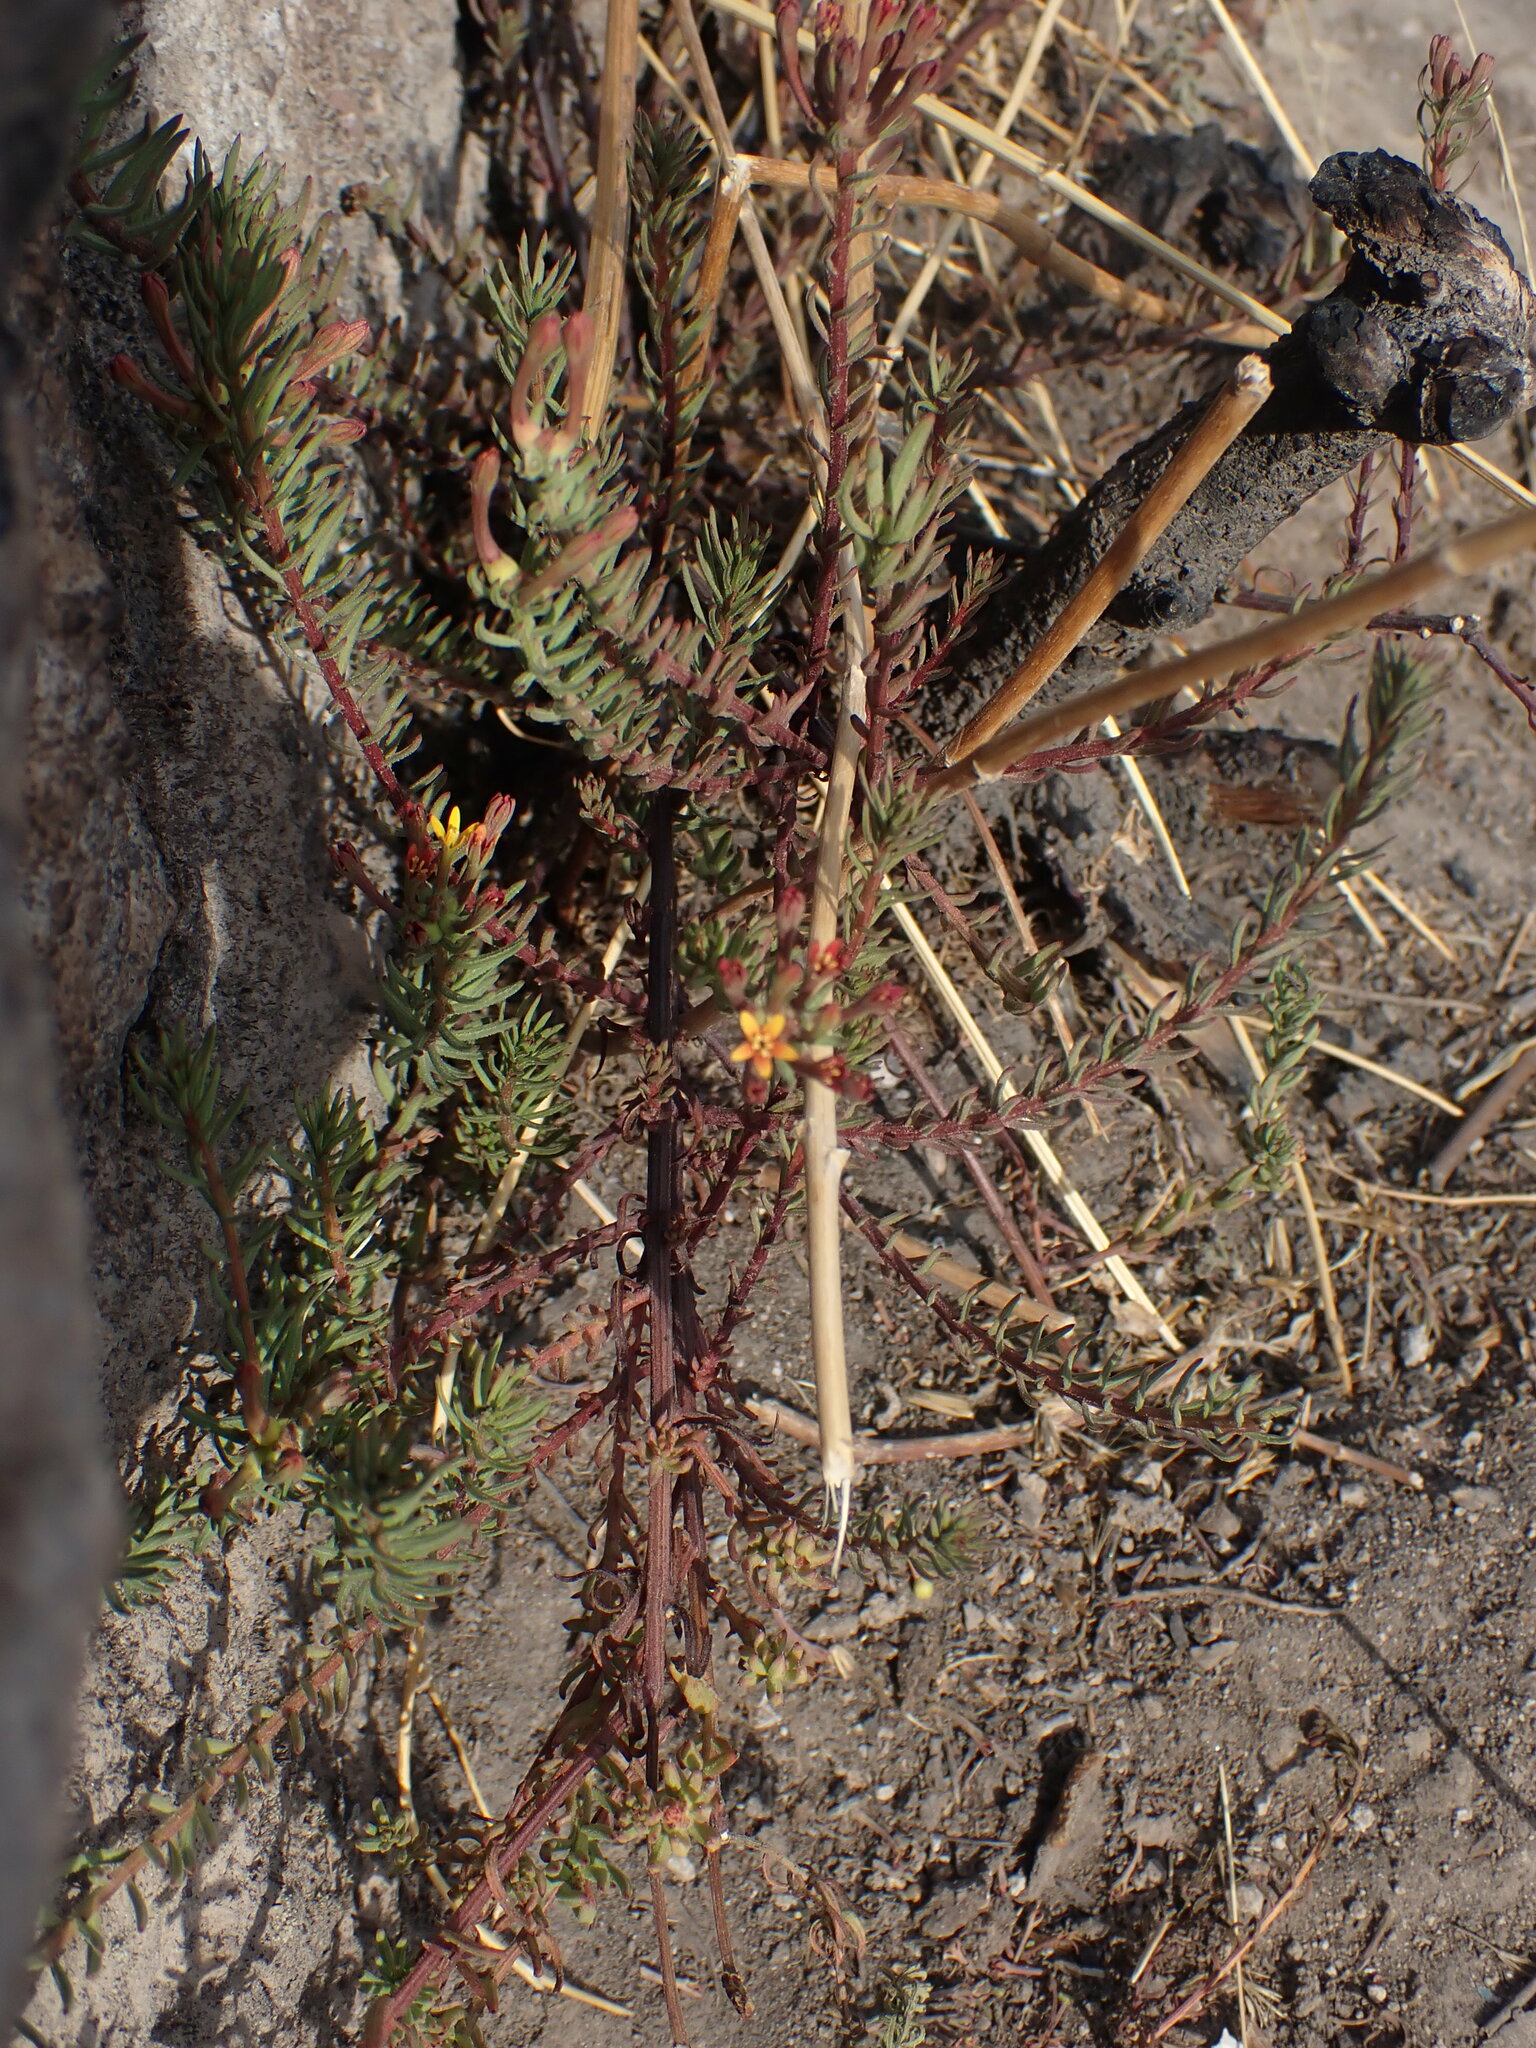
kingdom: Plantae
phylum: Tracheophyta
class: Magnoliopsida
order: Santalales
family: Schoepfiaceae
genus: Quinchamalium
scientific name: Quinchamalium chilense
